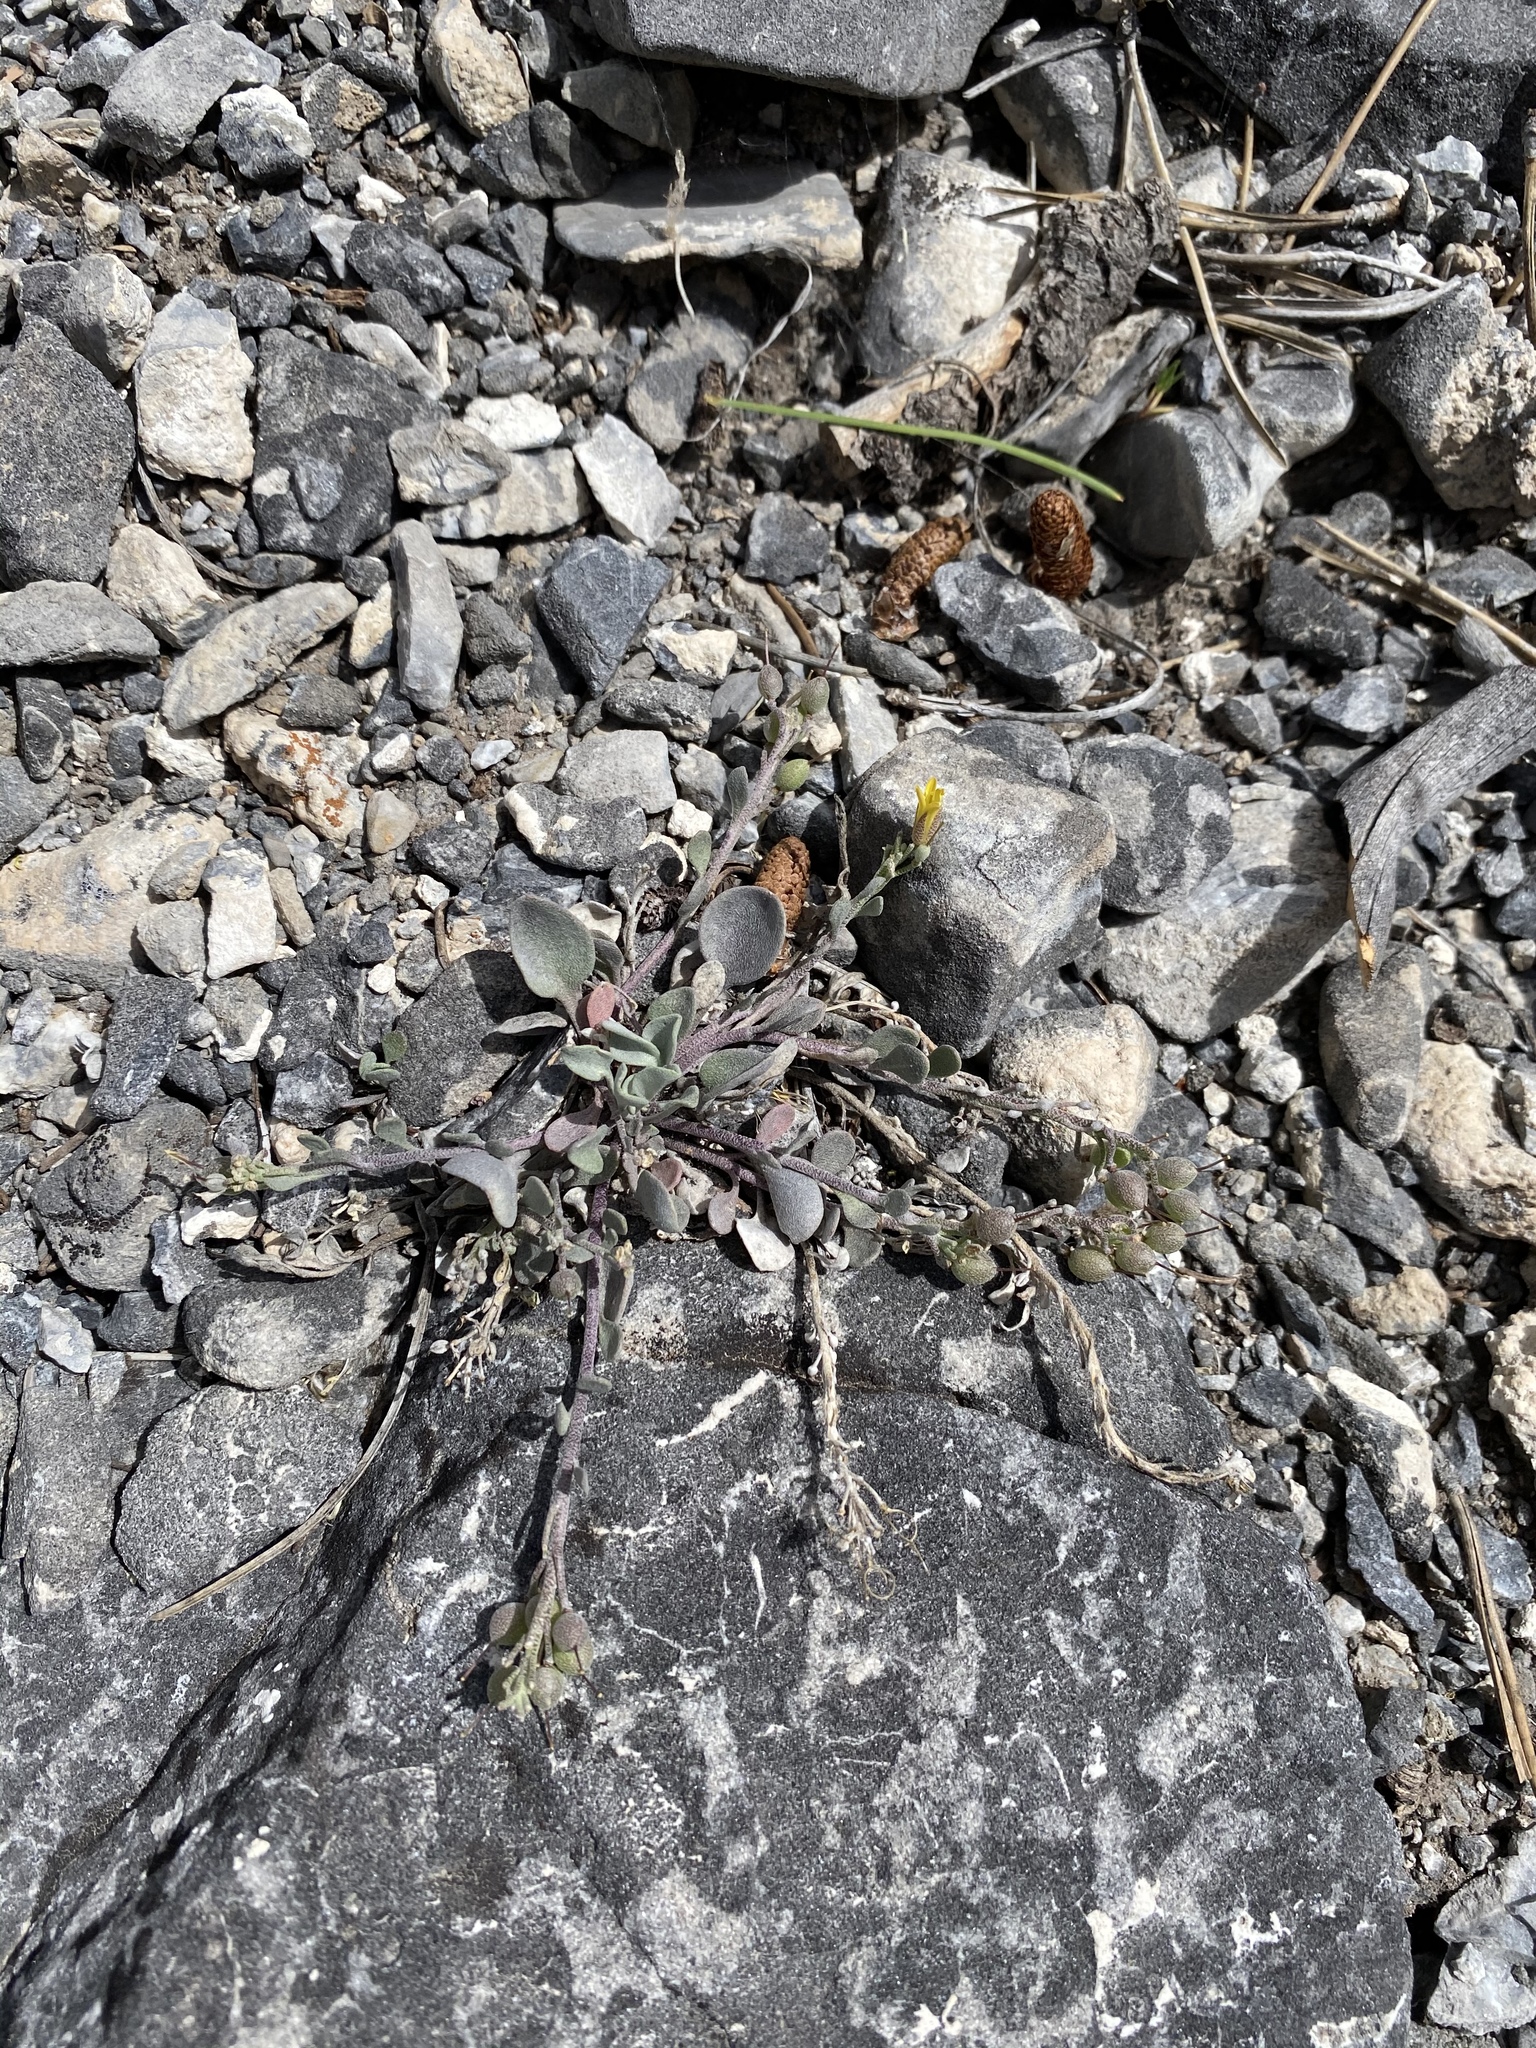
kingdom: Plantae
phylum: Tracheophyta
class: Magnoliopsida
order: Brassicales
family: Brassicaceae
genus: Physaria
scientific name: Physaria kingii
